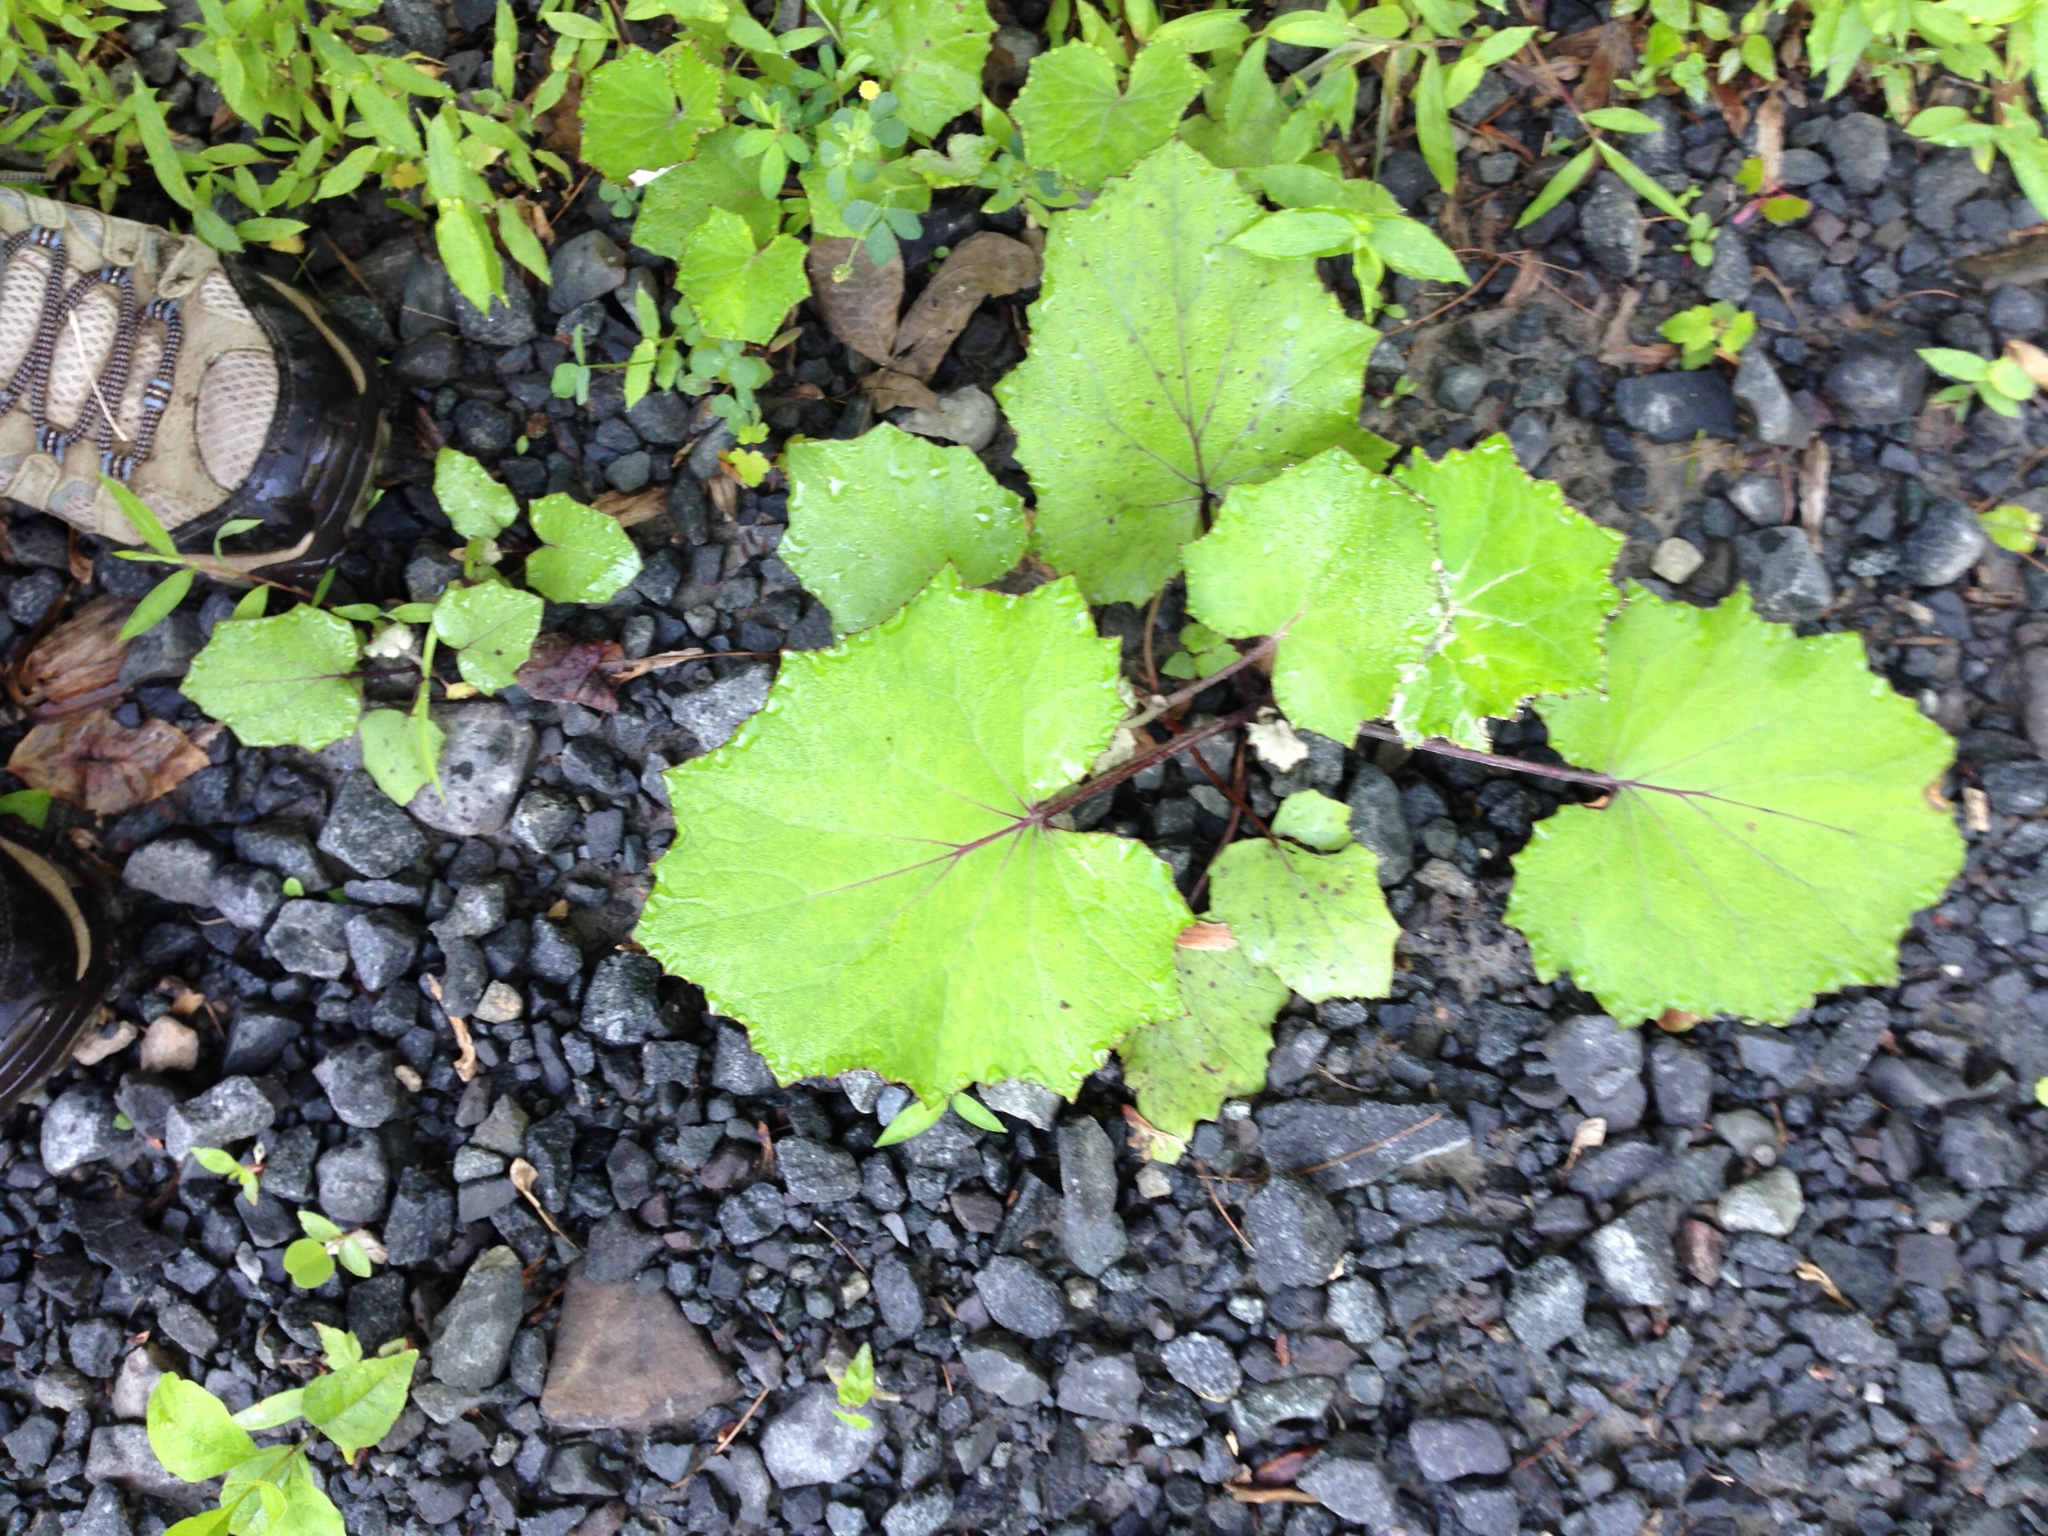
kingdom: Plantae
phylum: Tracheophyta
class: Magnoliopsida
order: Asterales
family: Asteraceae
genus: Tussilago
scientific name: Tussilago farfara
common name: Coltsfoot
